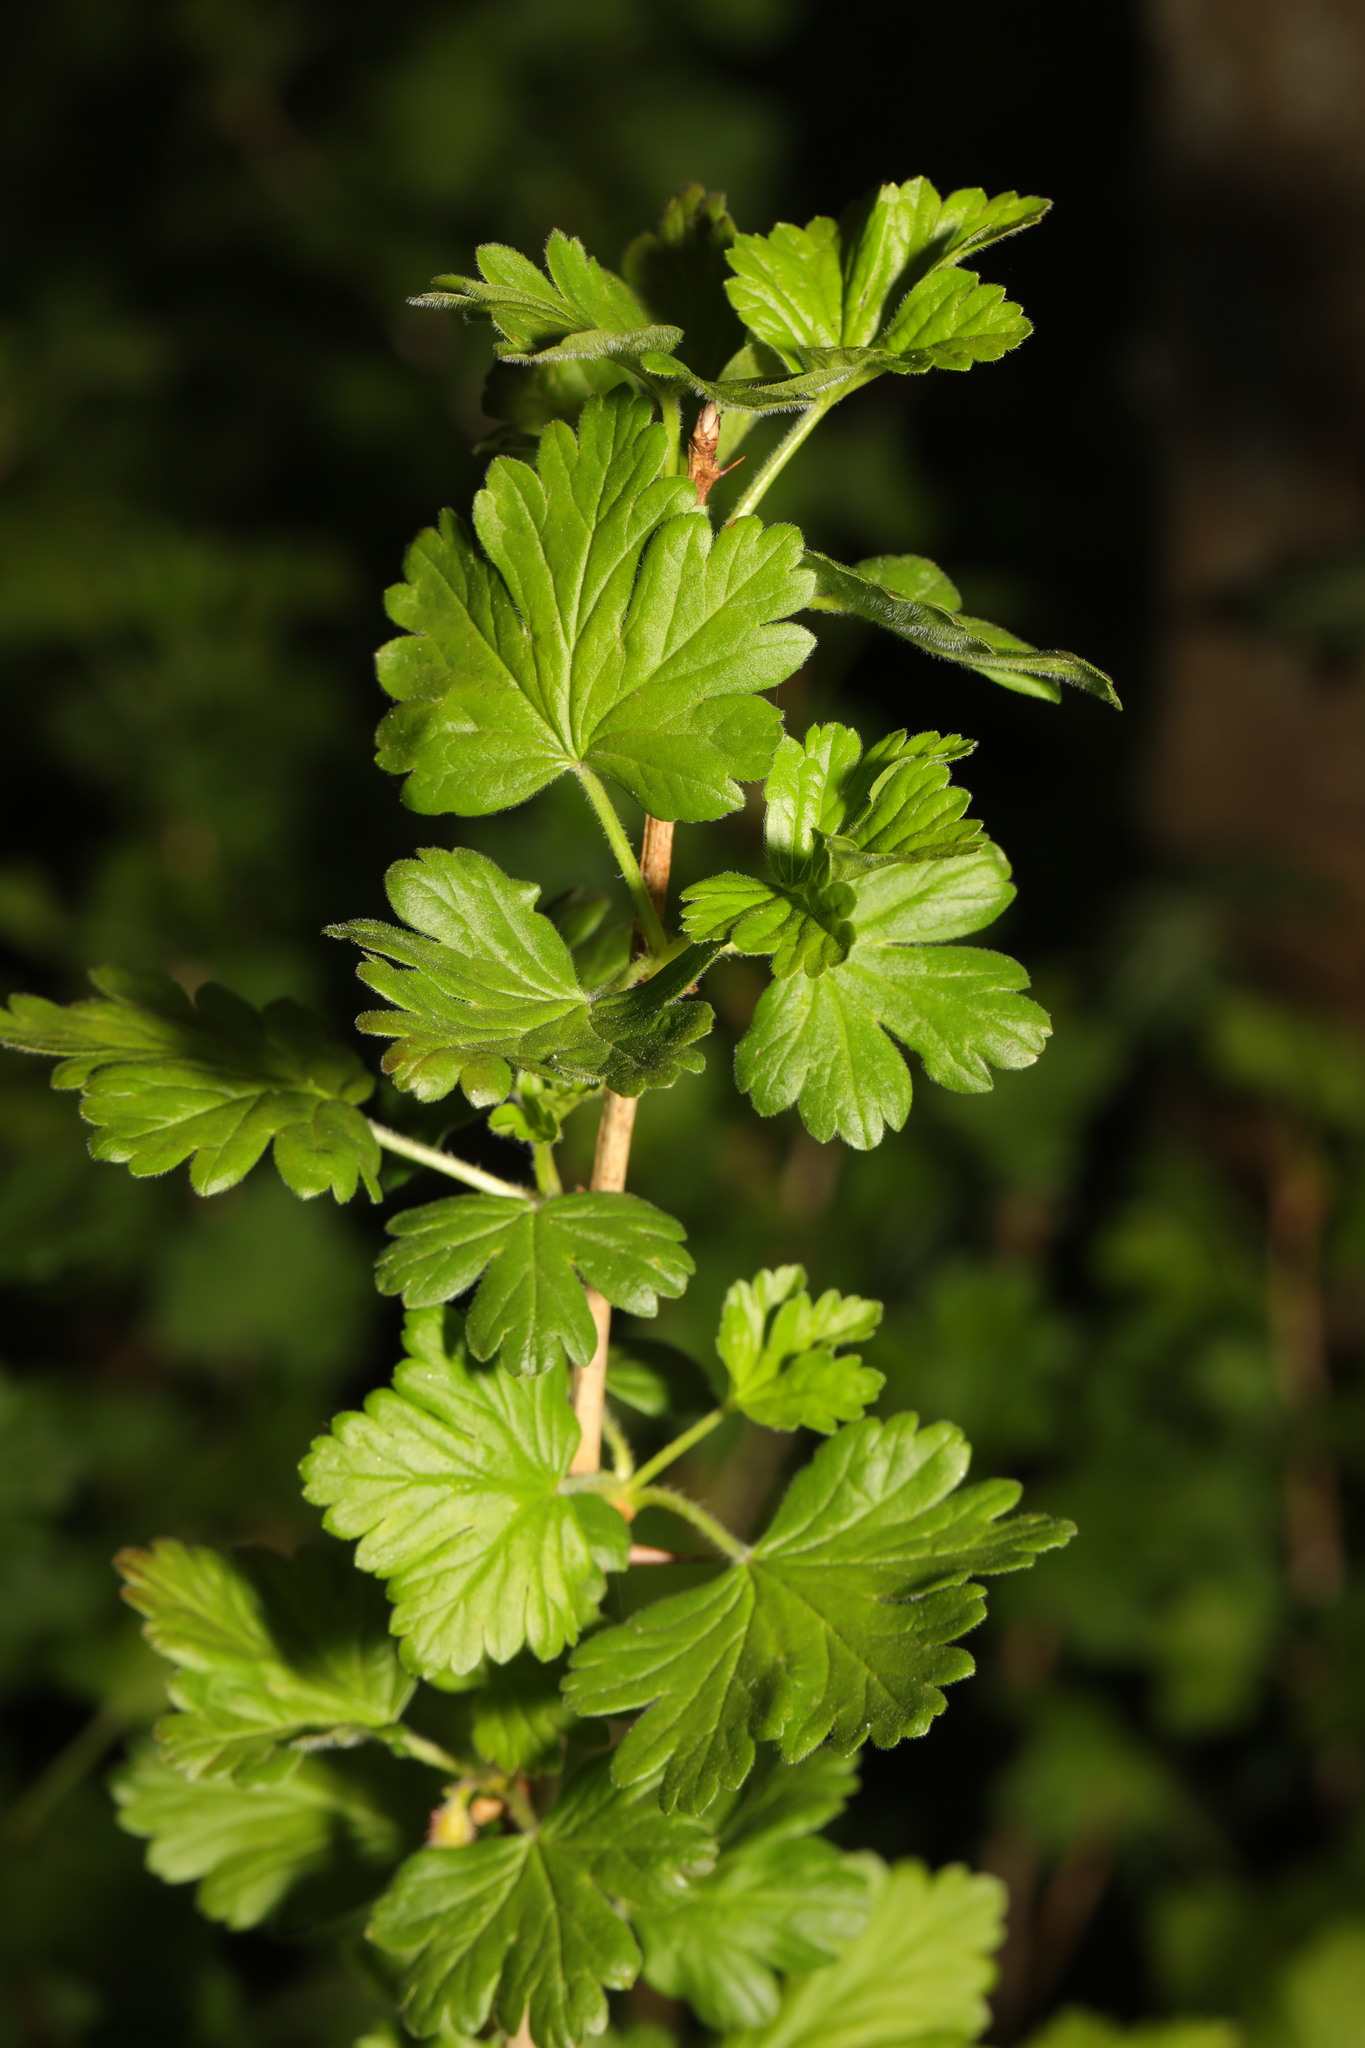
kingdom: Plantae
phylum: Tracheophyta
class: Magnoliopsida
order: Saxifragales
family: Grossulariaceae
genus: Ribes
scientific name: Ribes uva-crispa
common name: Gooseberry
